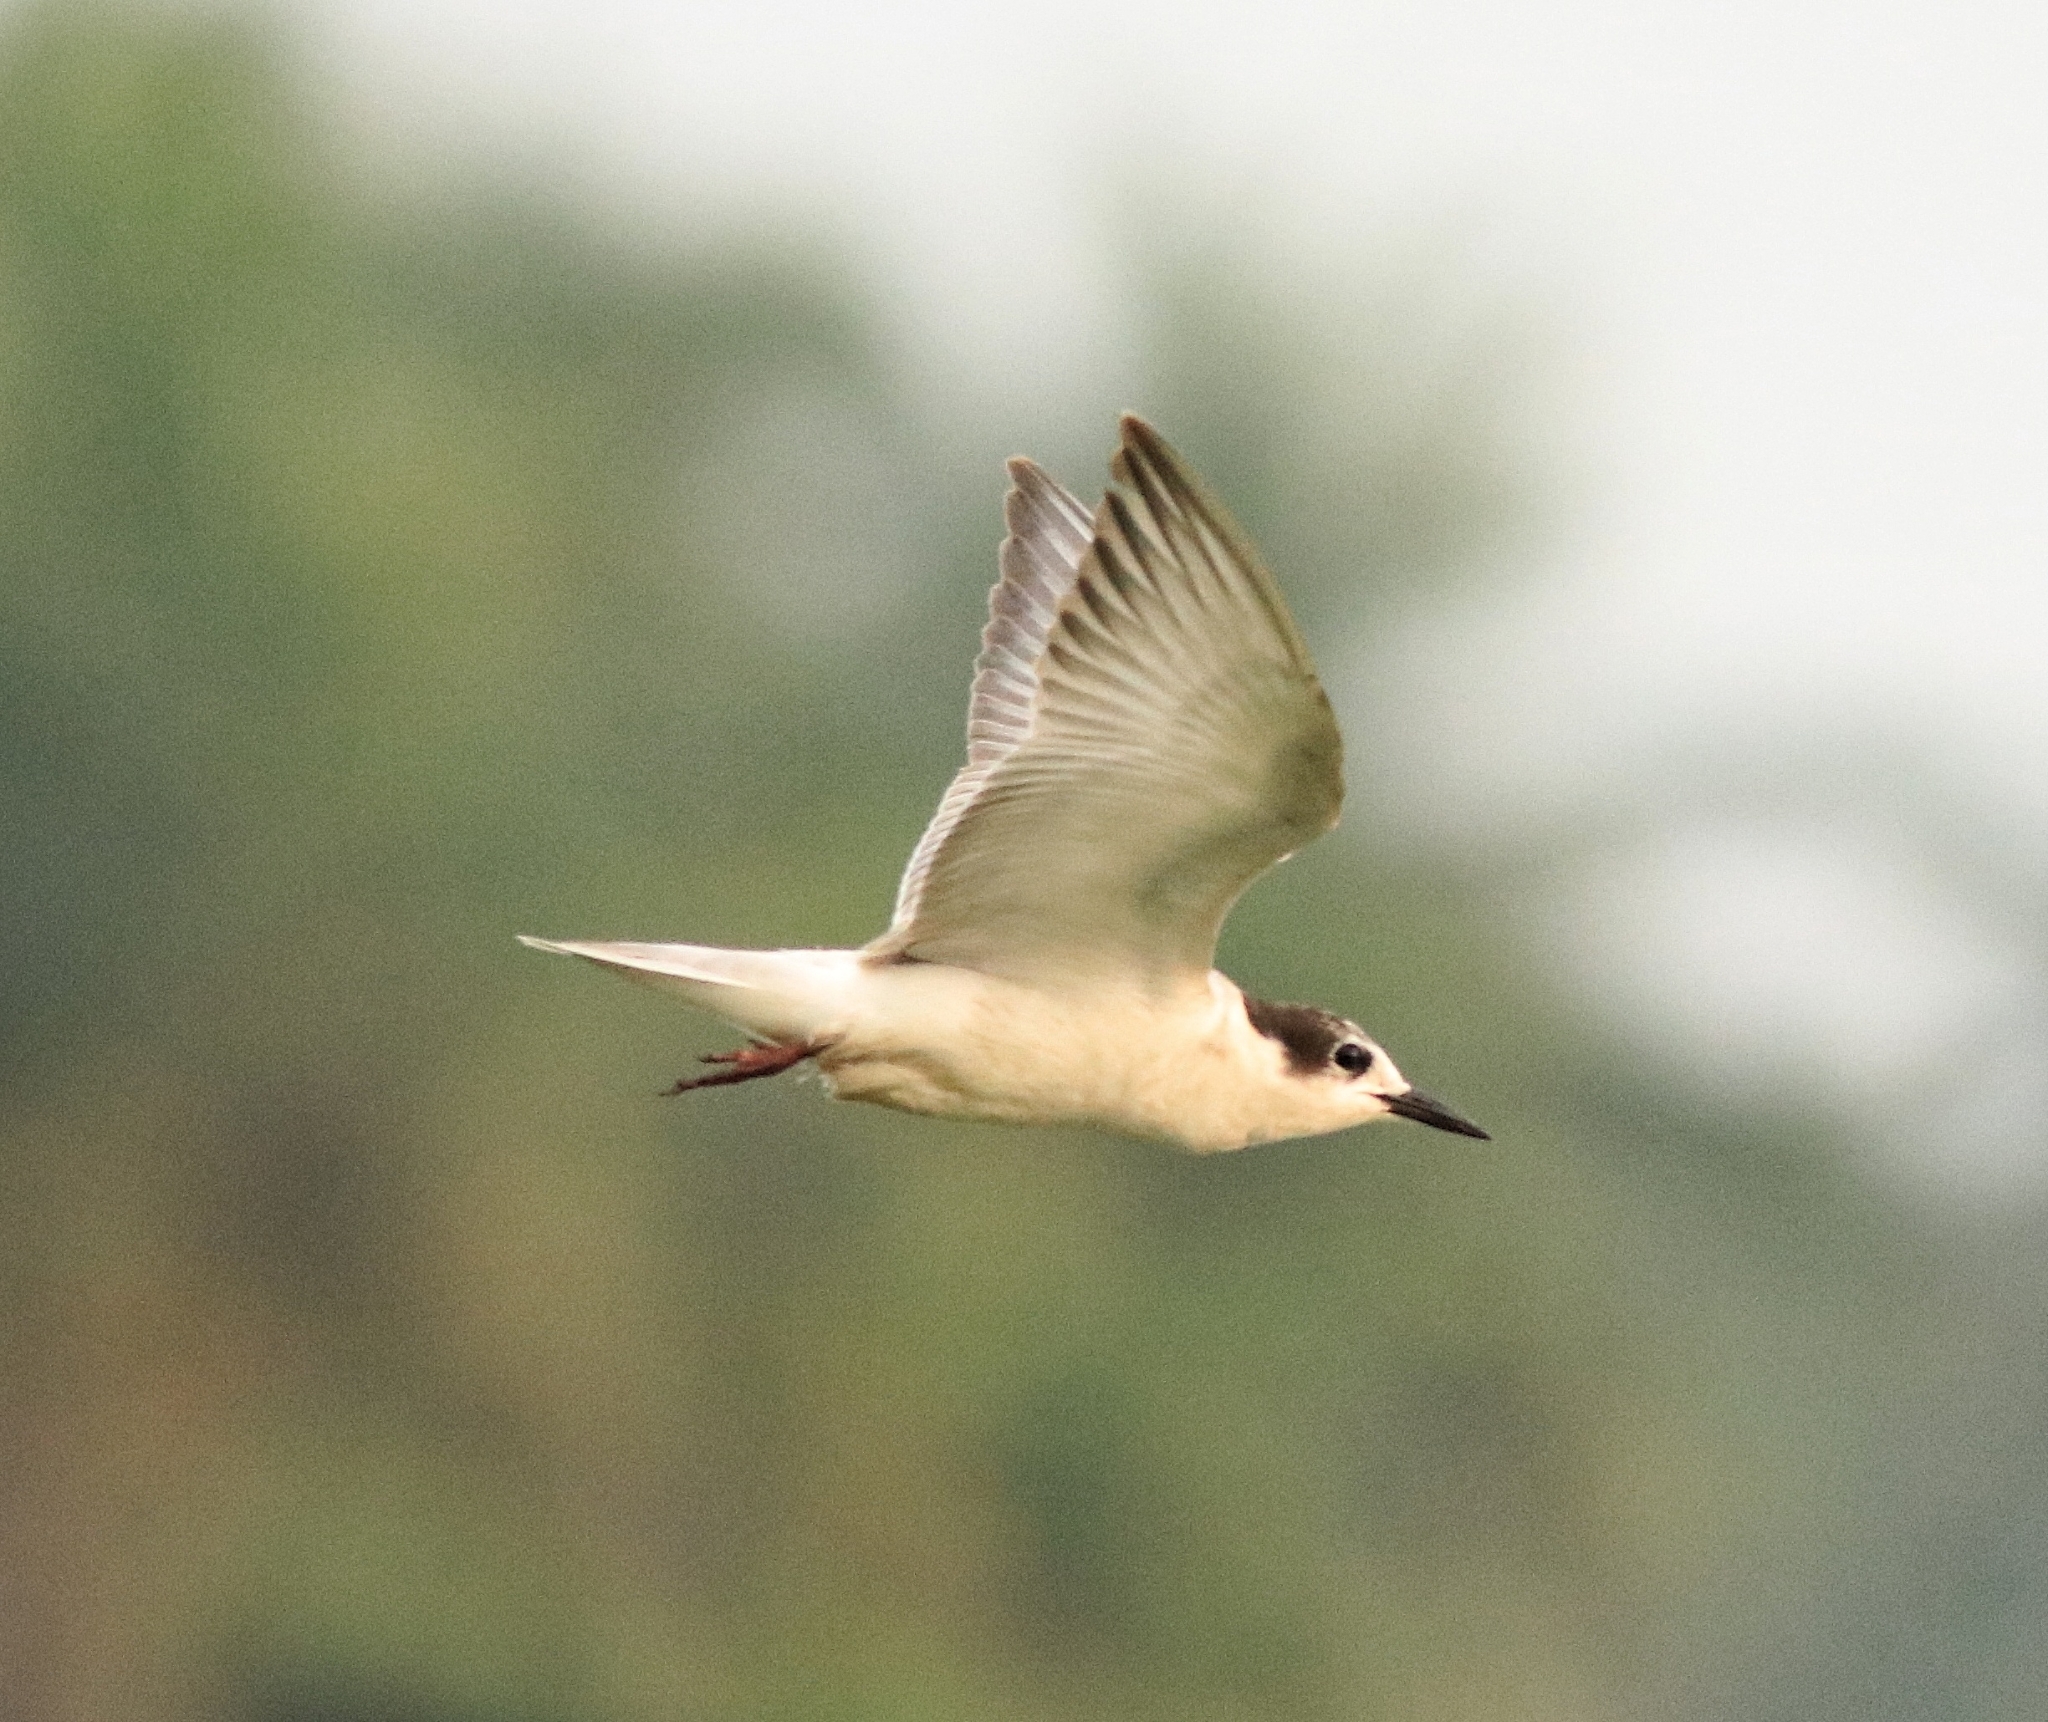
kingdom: Animalia
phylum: Chordata
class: Aves
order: Charadriiformes
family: Laridae
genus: Chlidonias
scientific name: Chlidonias hybrida
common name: Whiskered tern
